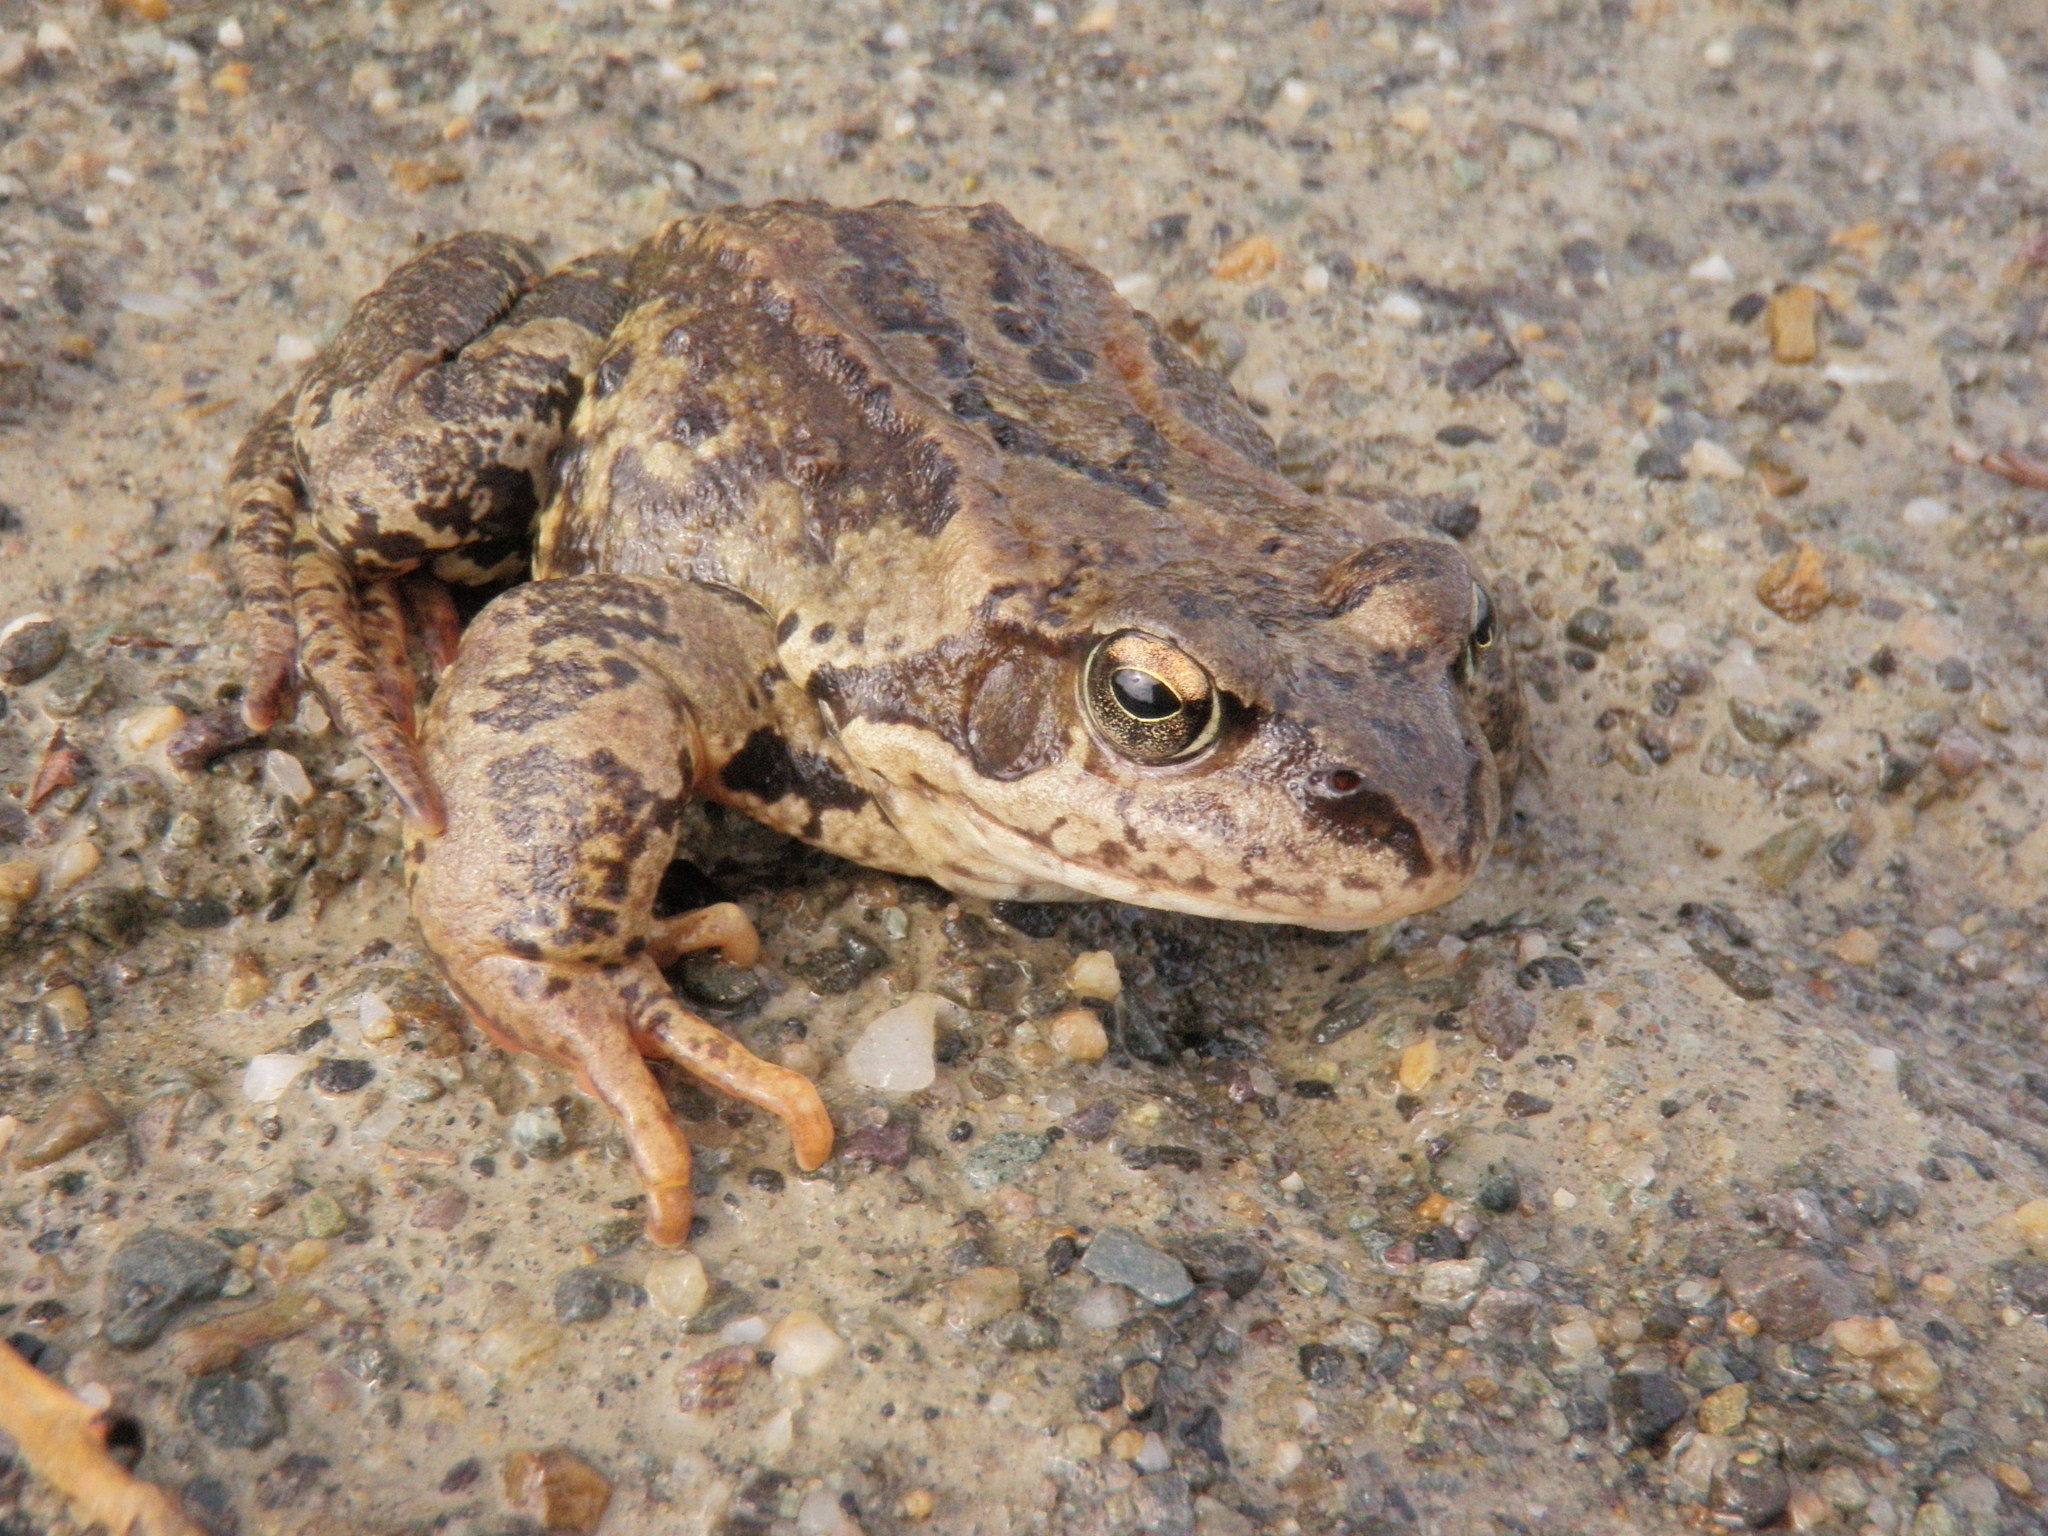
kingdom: Animalia
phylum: Chordata
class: Amphibia
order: Anura
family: Ranidae
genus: Rana
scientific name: Rana temporaria
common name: Common frog
